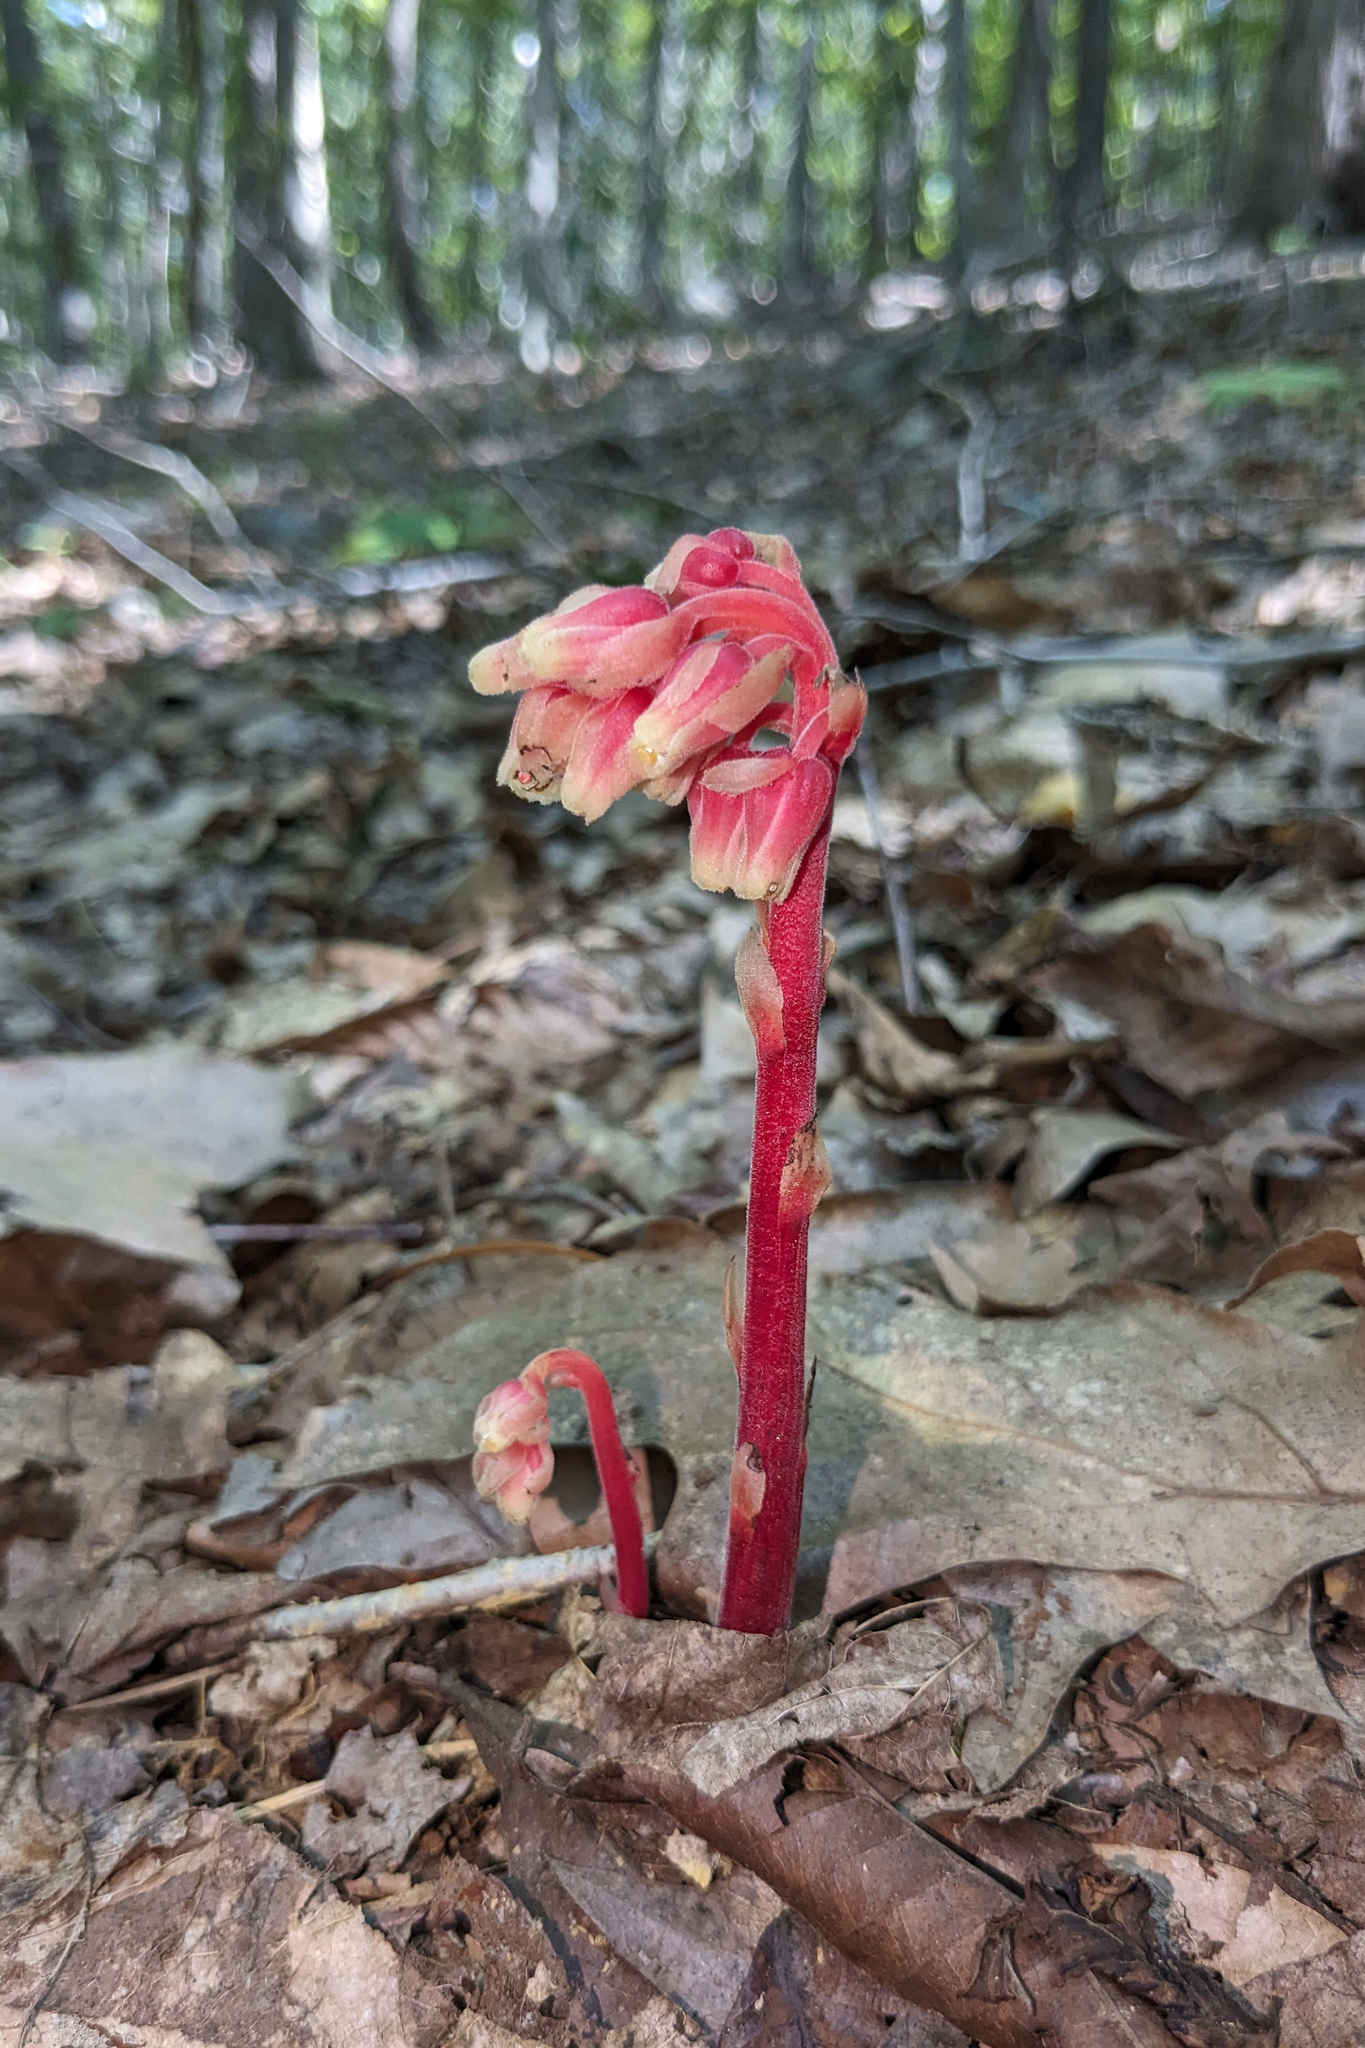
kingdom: Plantae
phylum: Tracheophyta
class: Magnoliopsida
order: Ericales
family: Ericaceae
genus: Hypopitys
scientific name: Hypopitys monotropa
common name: Yellow bird's-nest
